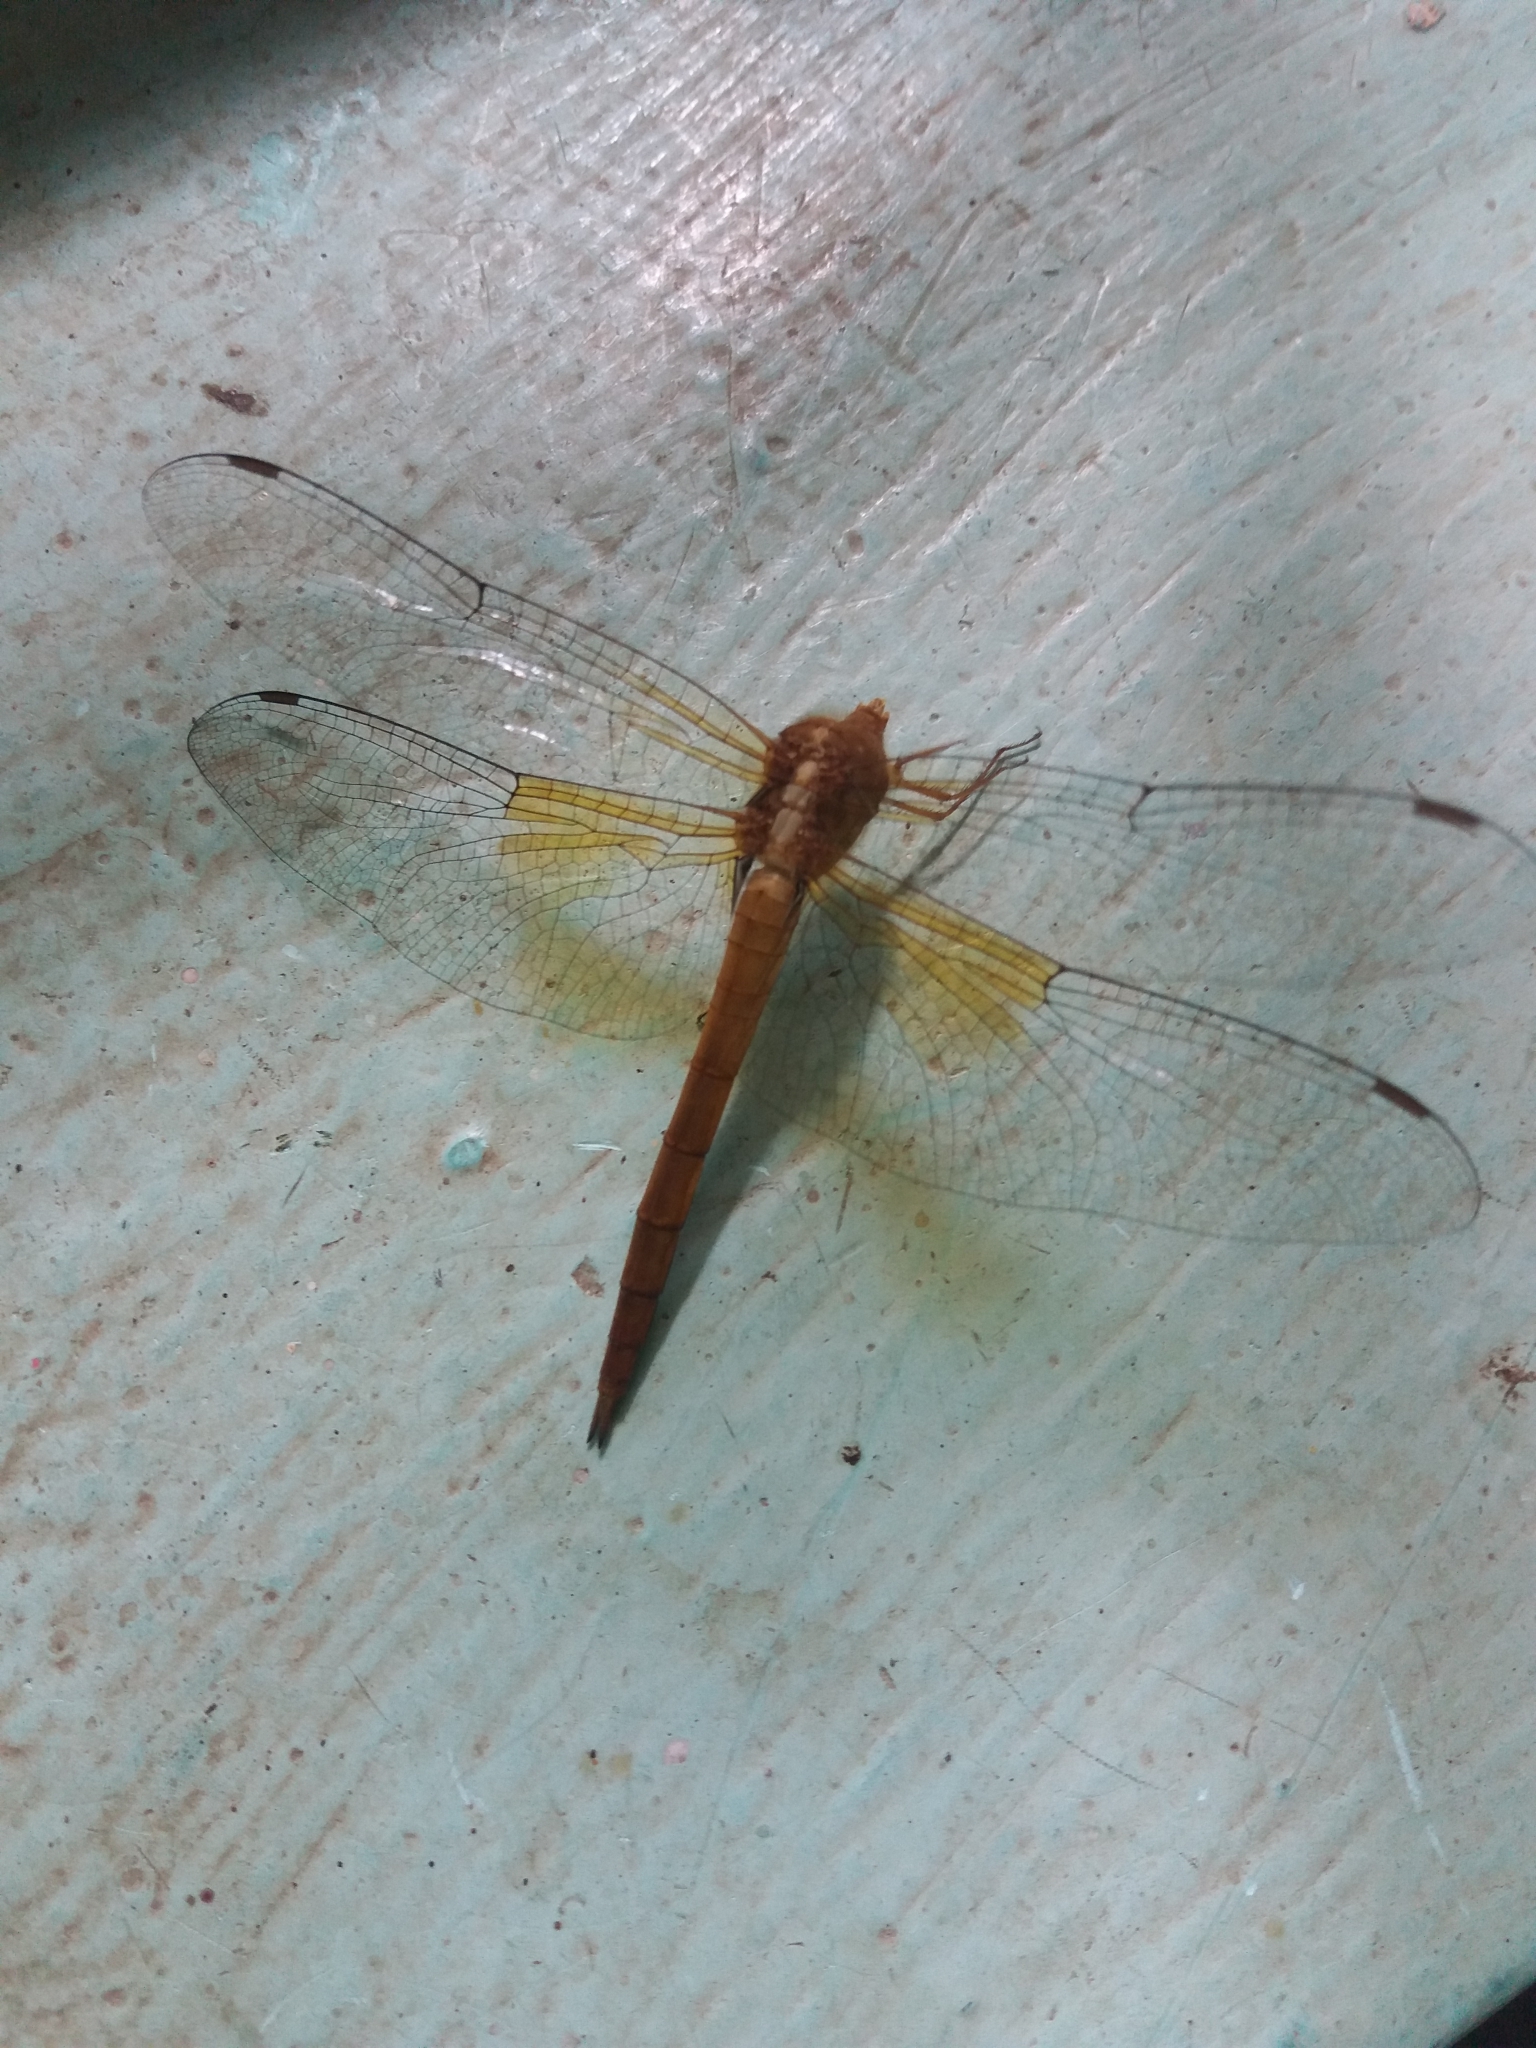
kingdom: Animalia
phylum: Arthropoda
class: Insecta
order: Odonata
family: Libellulidae
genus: Tholymis
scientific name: Tholymis tillarga
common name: Coral-tailed cloud wing
